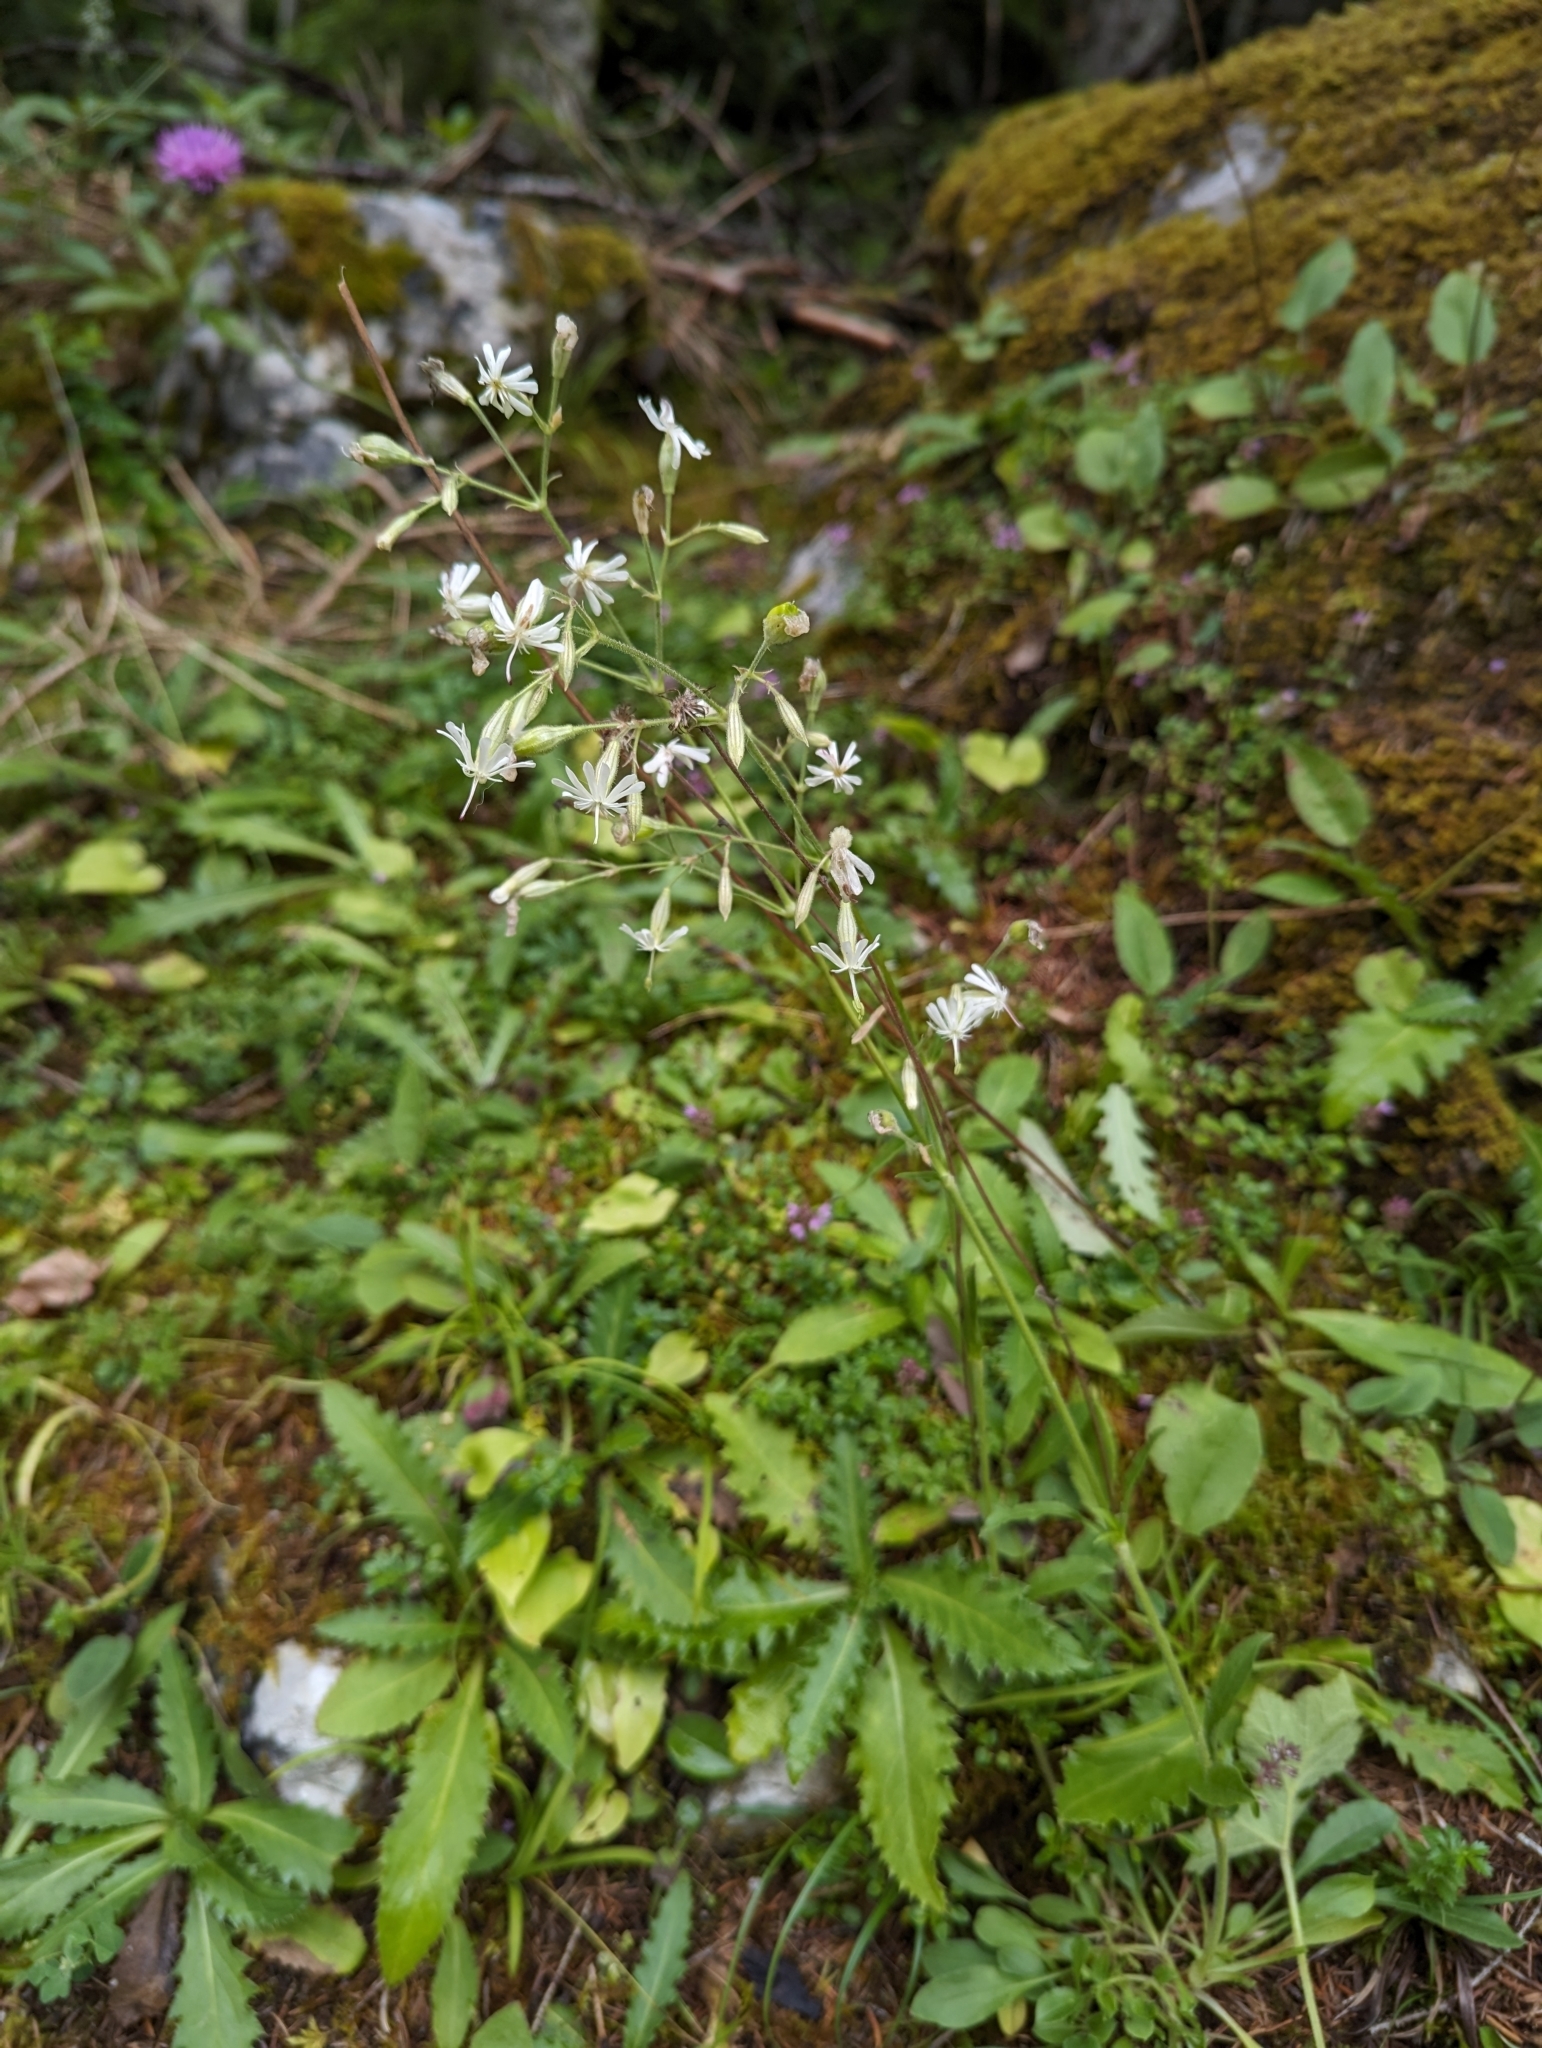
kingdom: Plantae
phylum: Tracheophyta
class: Magnoliopsida
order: Caryophyllales
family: Caryophyllaceae
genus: Silene
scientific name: Silene nutans
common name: Nottingham catchfly
